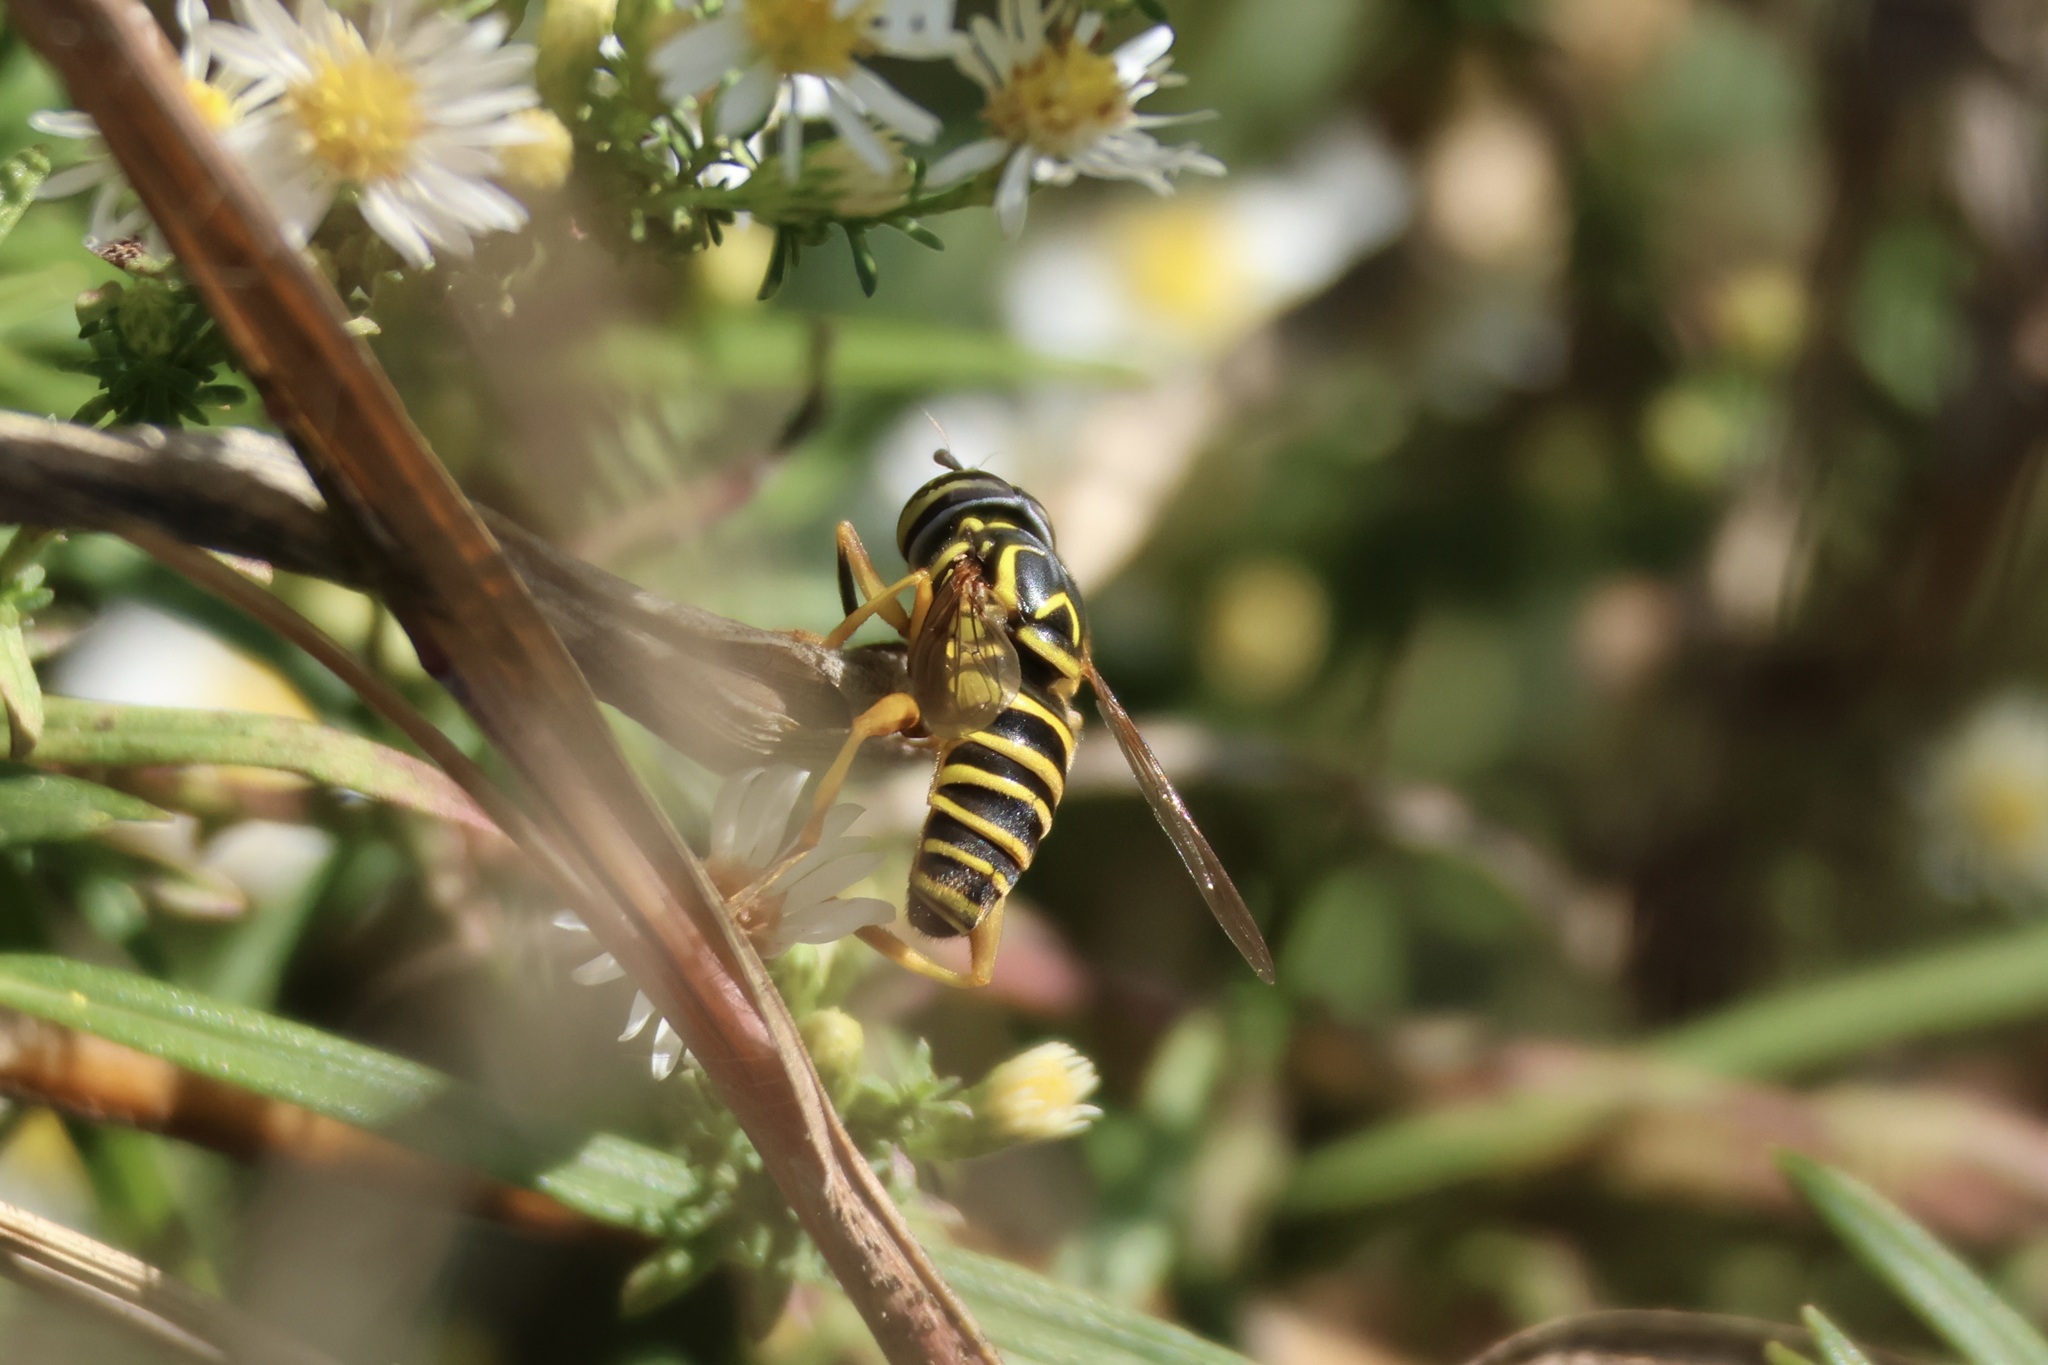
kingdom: Animalia
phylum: Arthropoda
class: Insecta
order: Diptera
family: Syrphidae
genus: Spilomyia
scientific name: Spilomyia longicornis
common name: Eastern hornet fly
